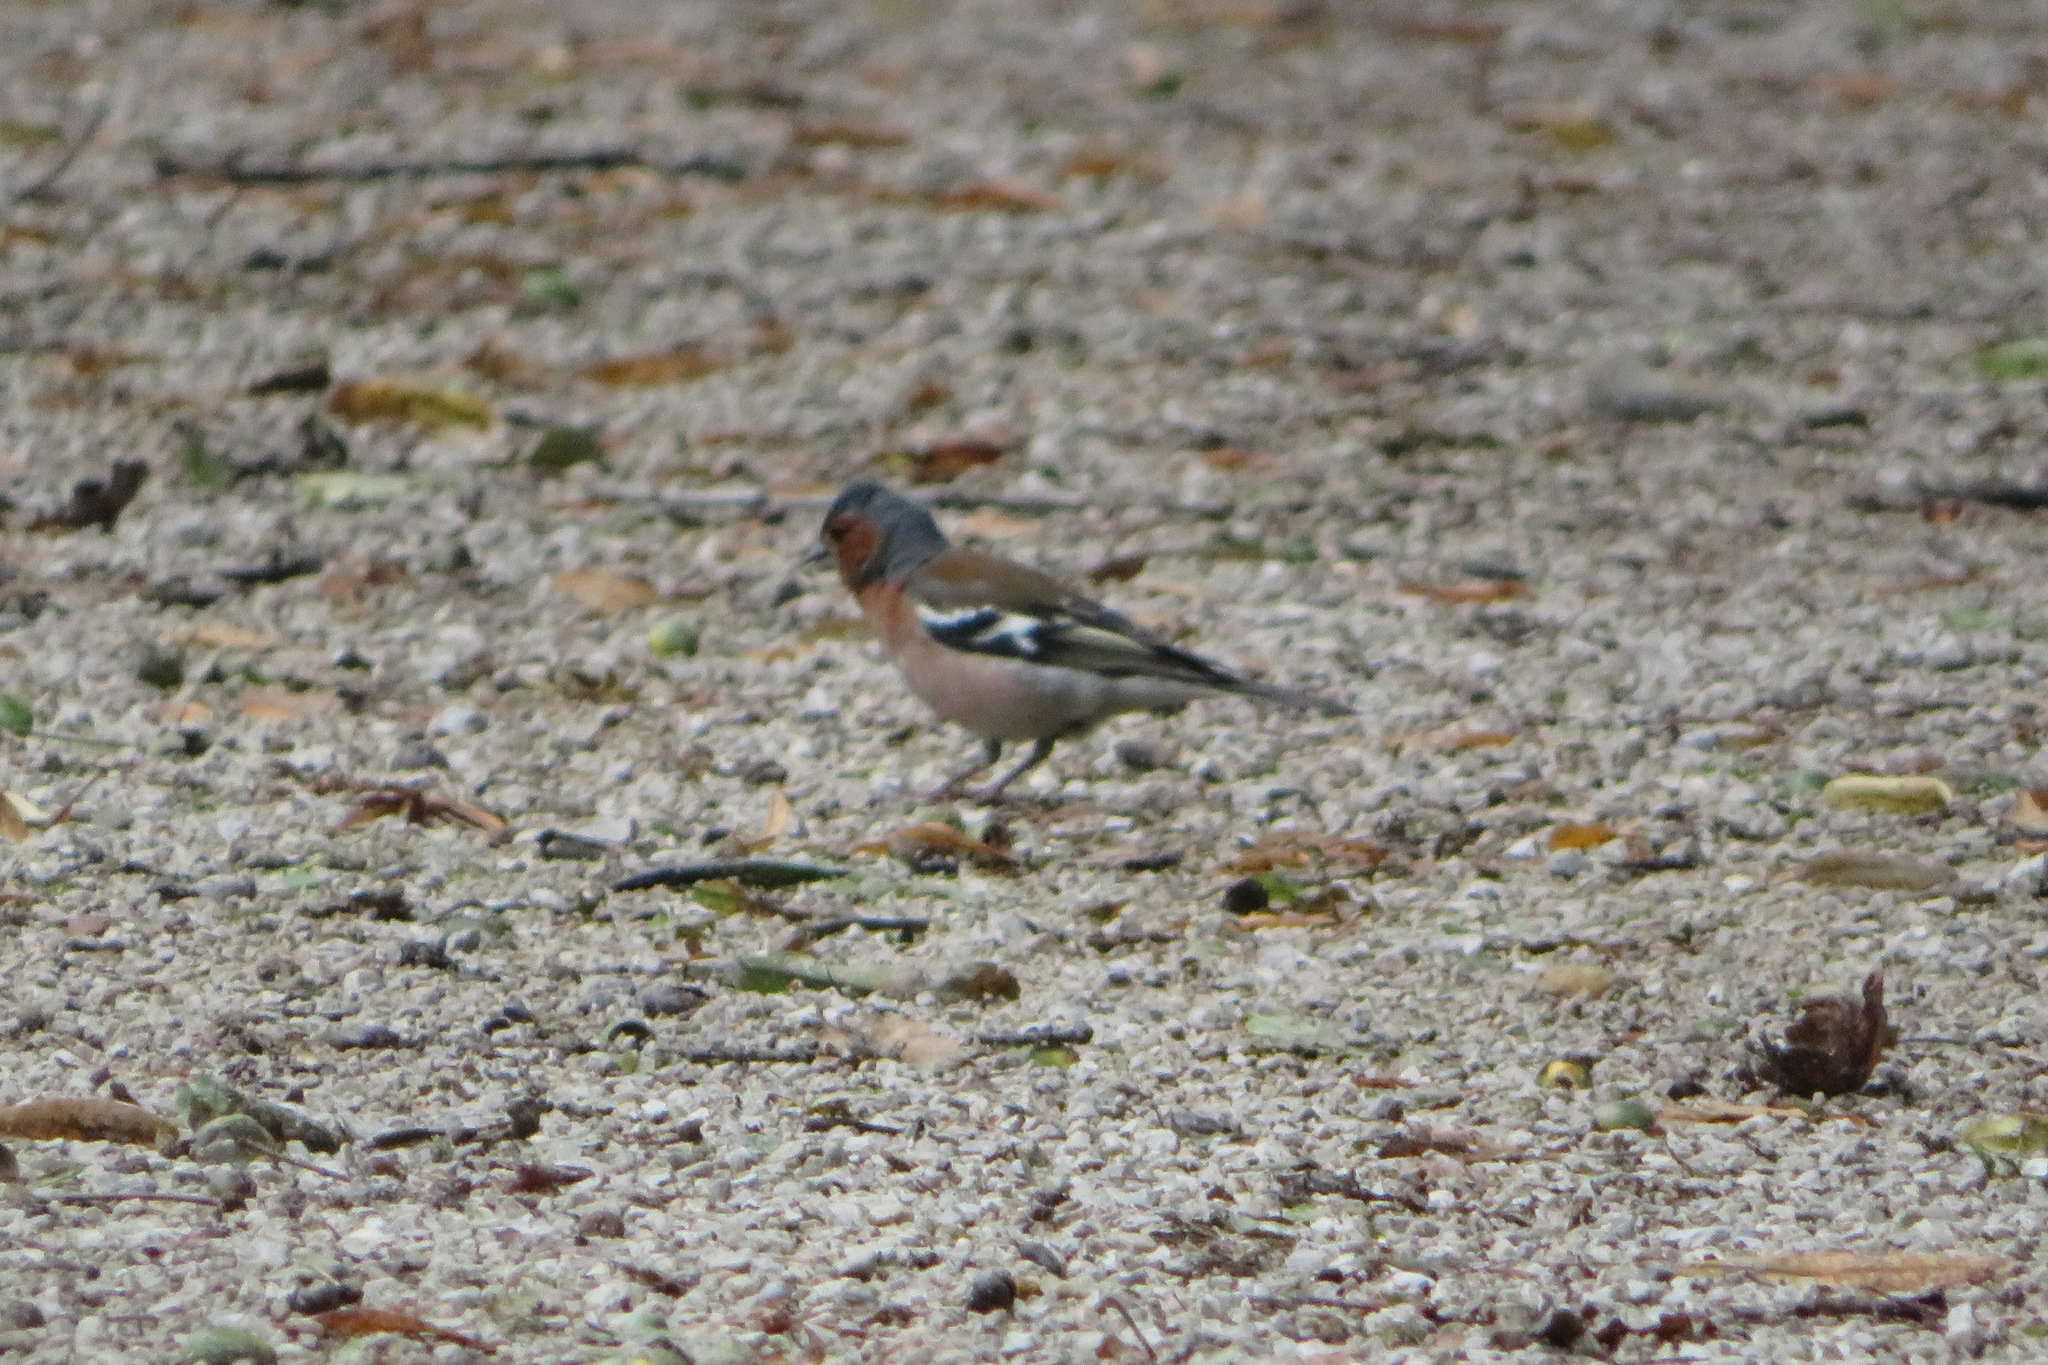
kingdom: Animalia
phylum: Chordata
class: Aves
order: Passeriformes
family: Fringillidae
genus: Fringilla
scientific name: Fringilla coelebs
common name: Common chaffinch
